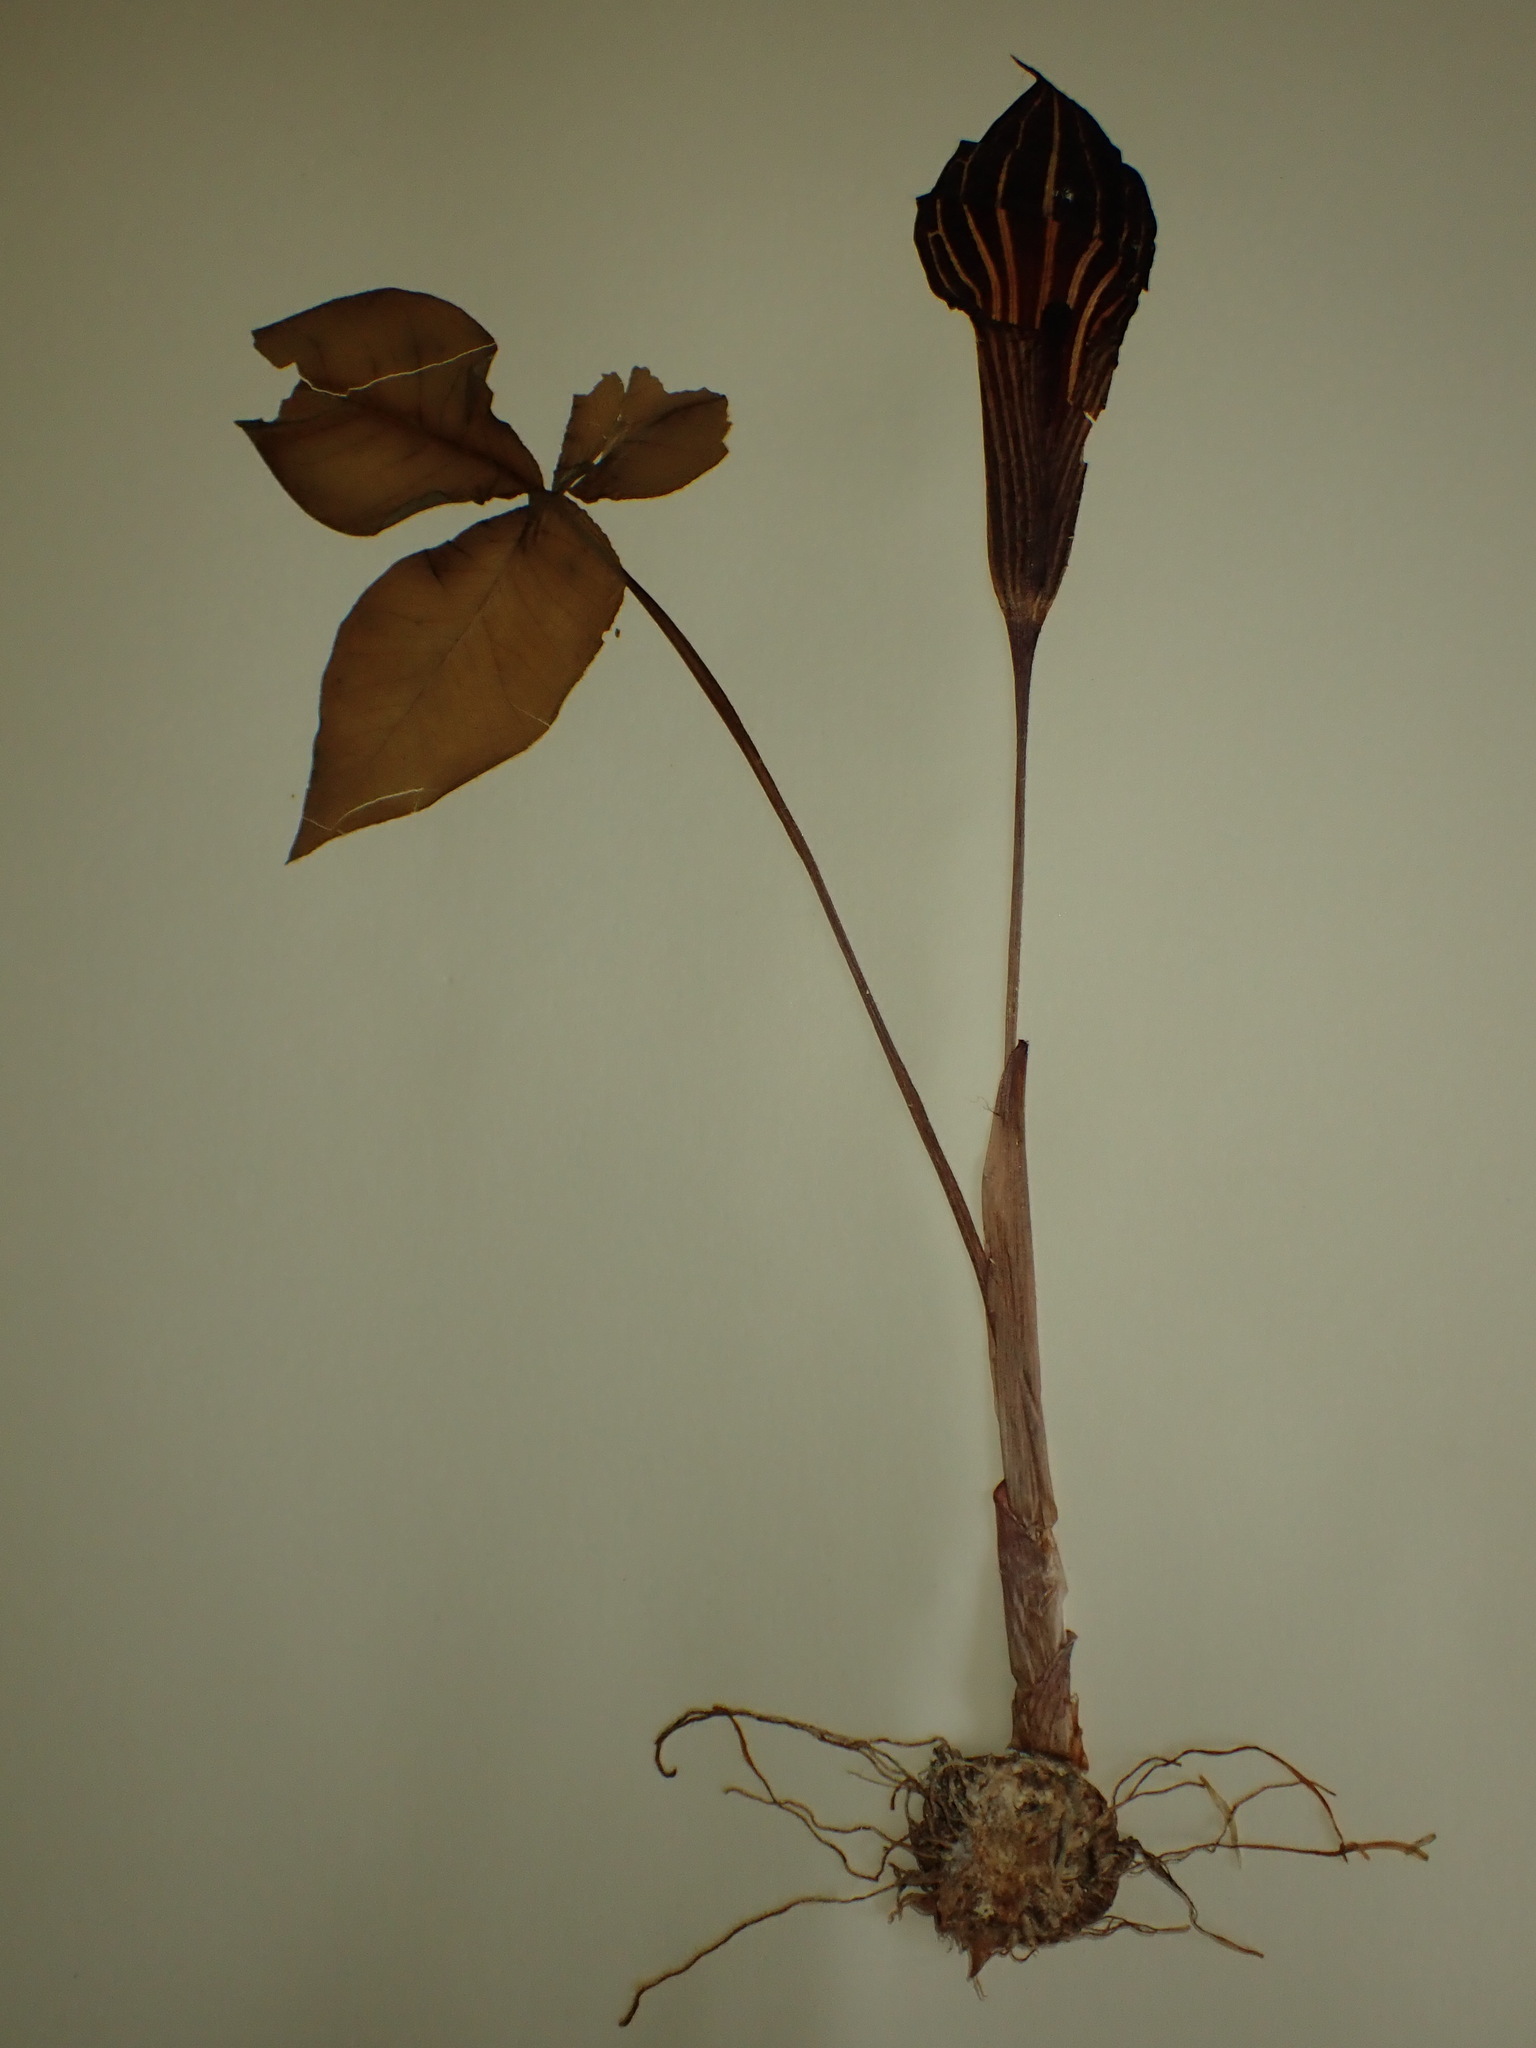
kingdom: Plantae
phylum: Tracheophyta
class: Liliopsida
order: Alismatales
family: Araceae
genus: Arisaema
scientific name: Arisaema triphyllum
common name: Jack-in-the-pulpit
